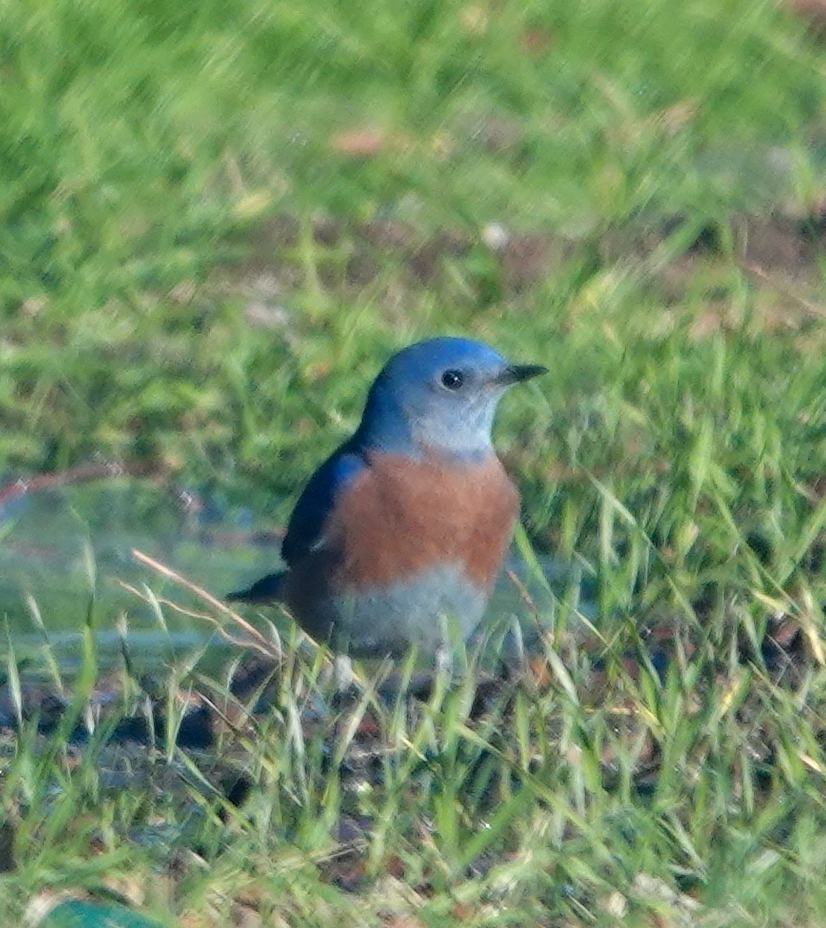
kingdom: Animalia
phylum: Chordata
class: Aves
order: Passeriformes
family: Turdidae
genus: Sialia
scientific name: Sialia mexicana
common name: Western bluebird
